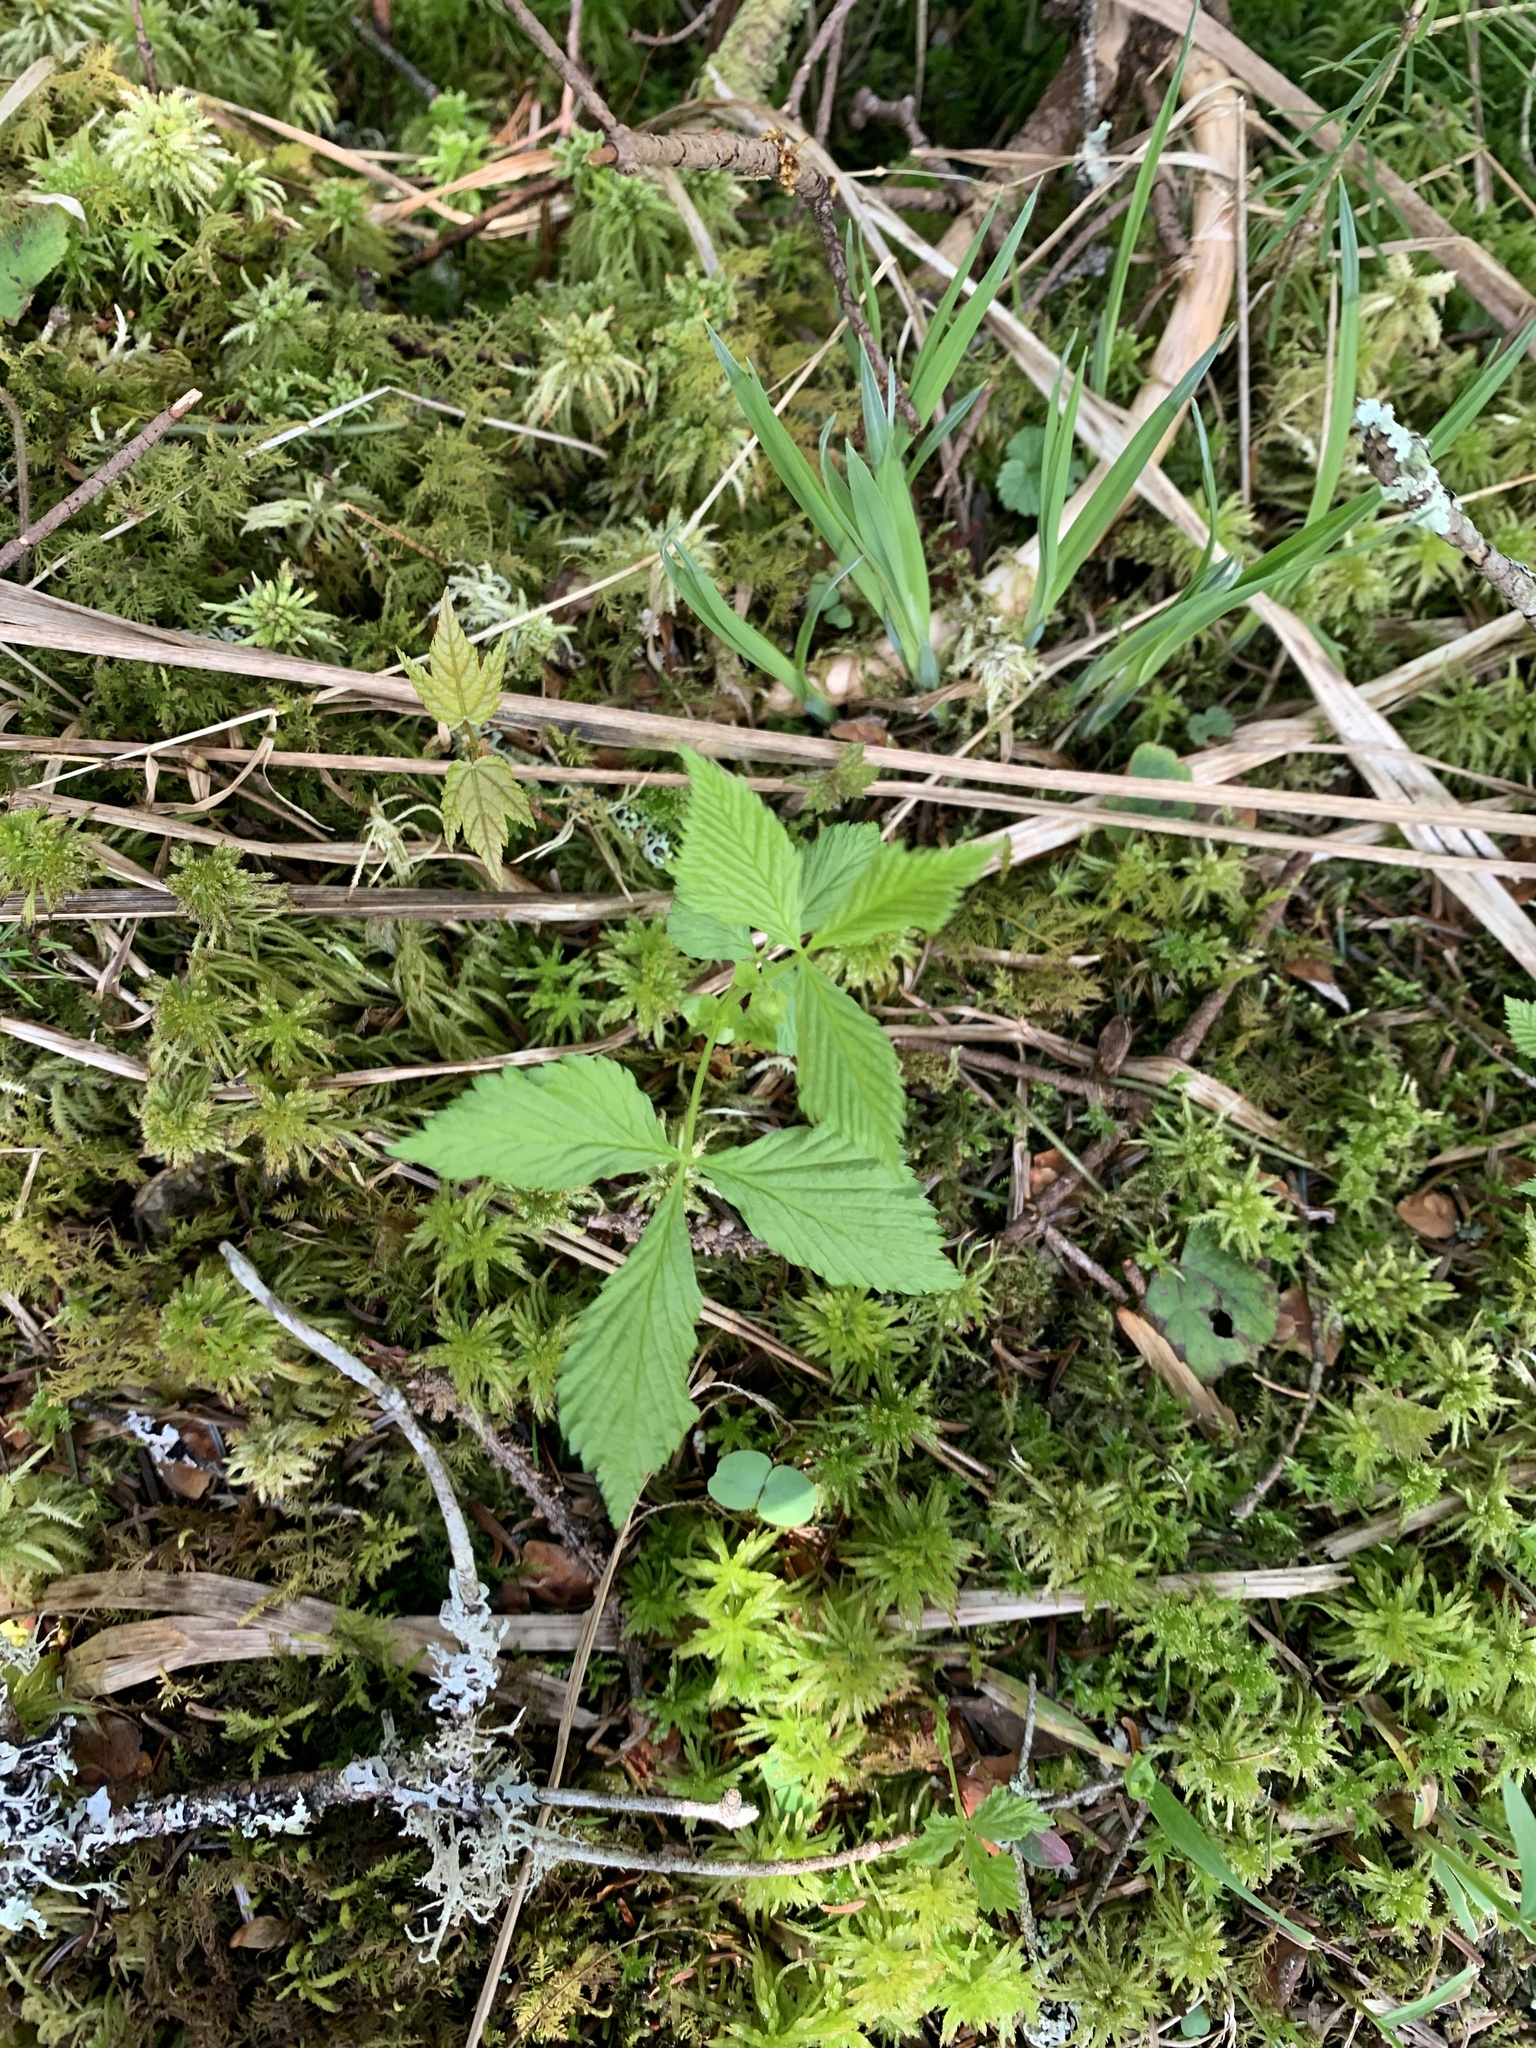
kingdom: Plantae
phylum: Tracheophyta
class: Magnoliopsida
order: Rosales
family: Rosaceae
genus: Rubus
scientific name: Rubus pubescens
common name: Dwarf raspberry
